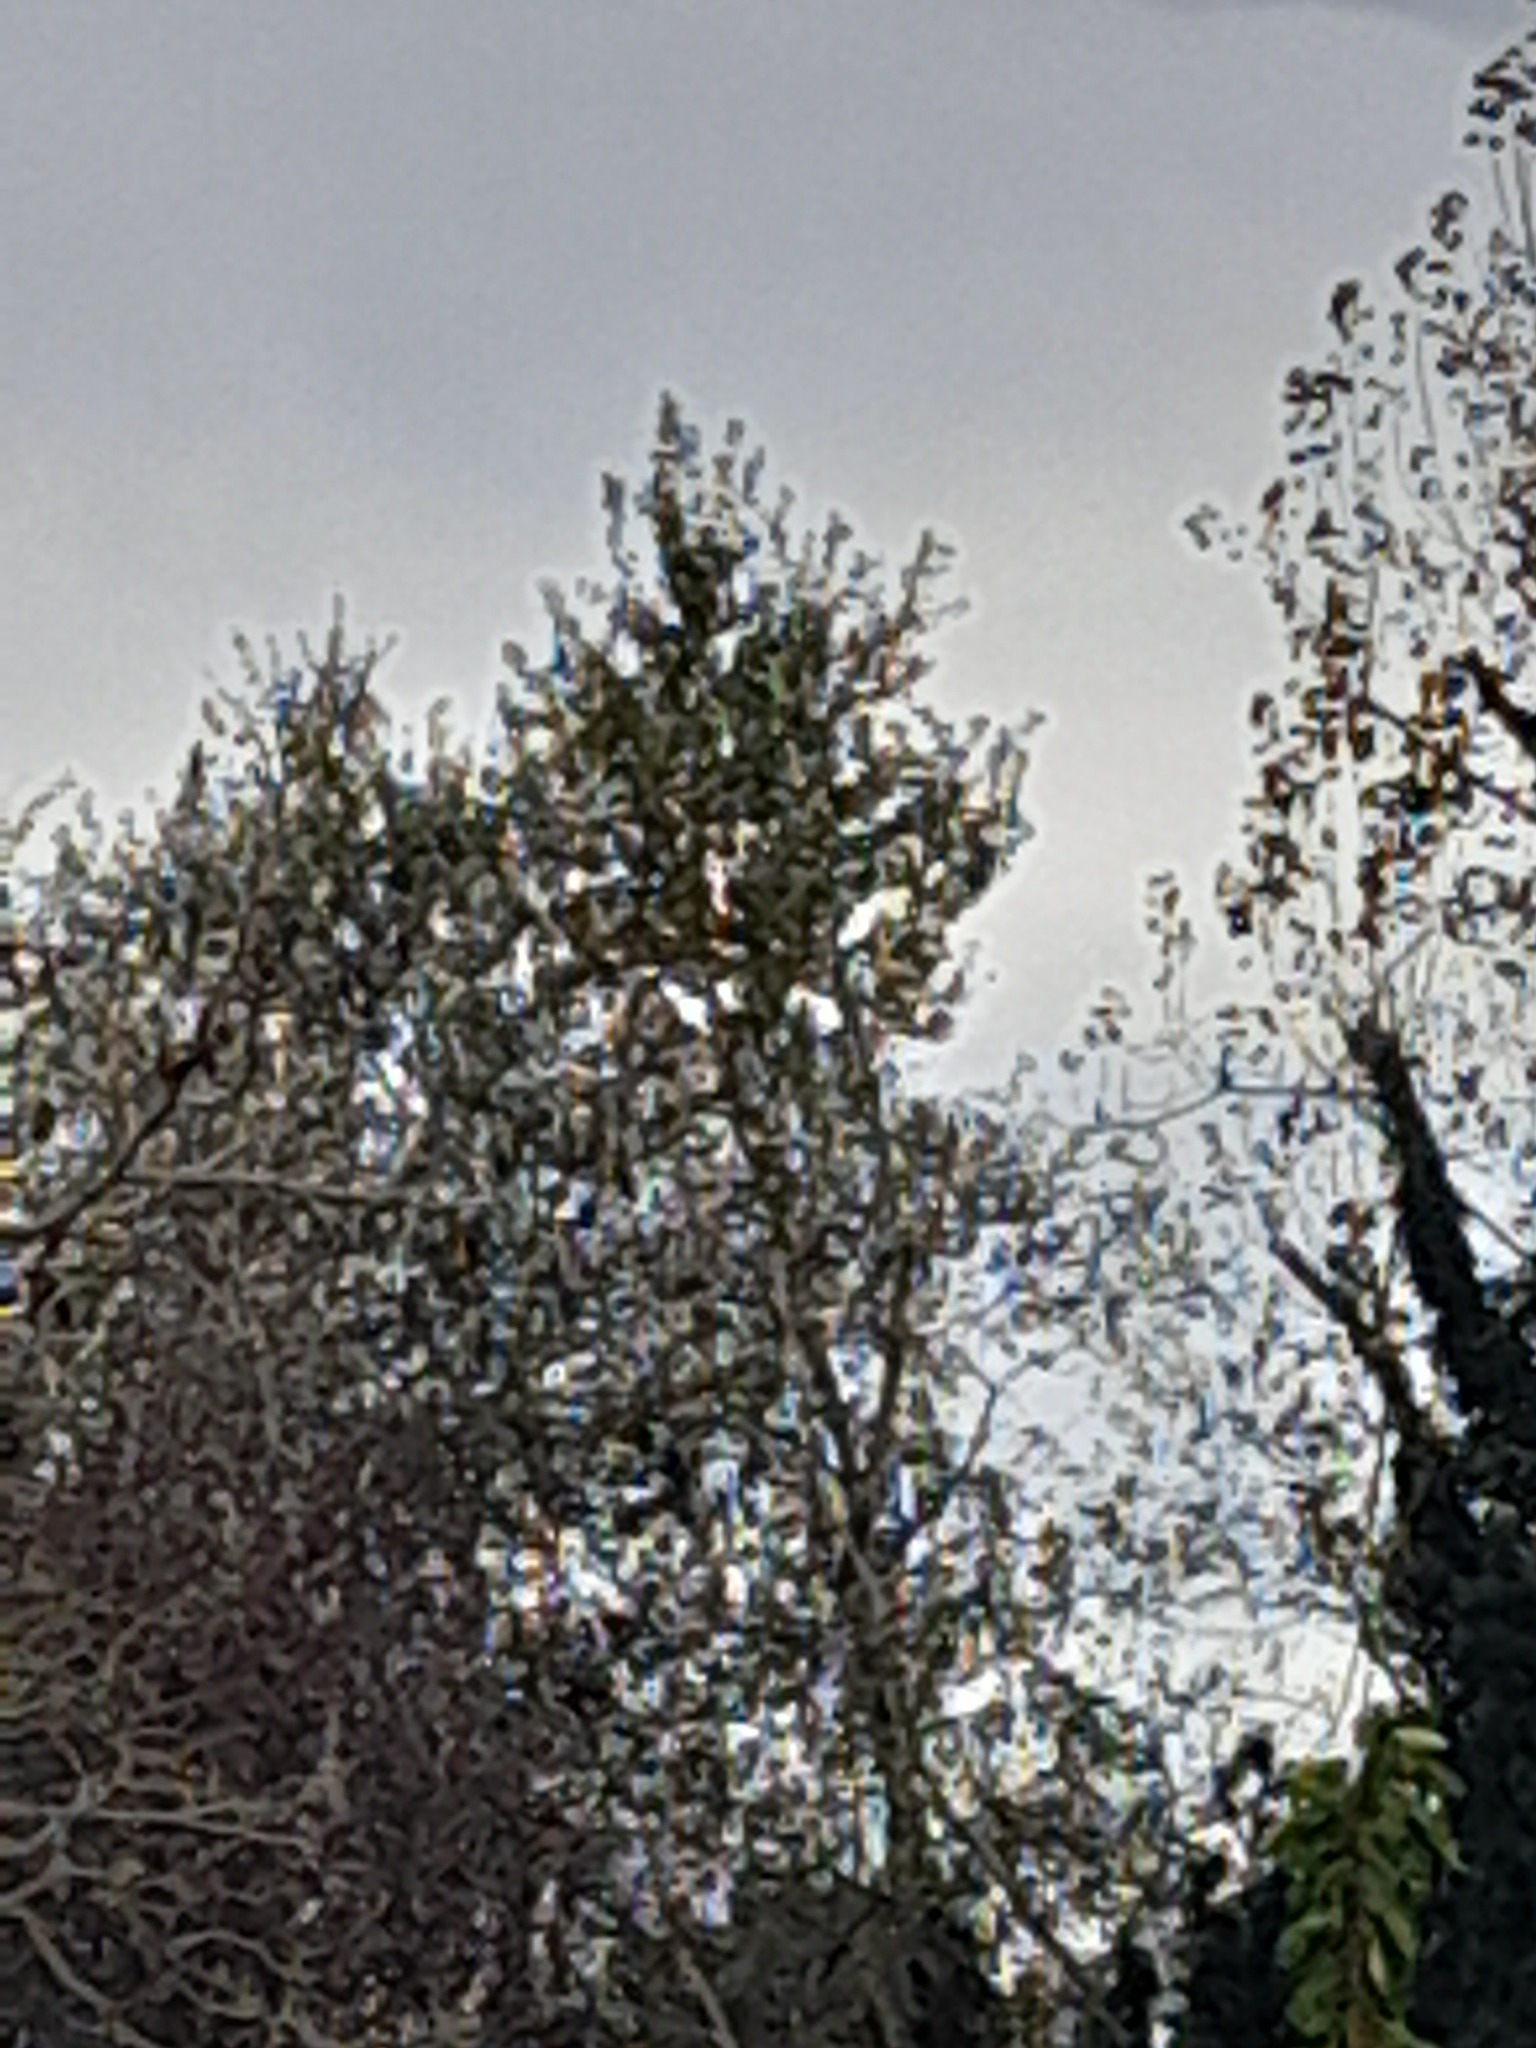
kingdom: Animalia
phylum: Arthropoda
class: Insecta
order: Hymenoptera
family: Vespidae
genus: Vespa
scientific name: Vespa velutina
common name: Asian hornet
